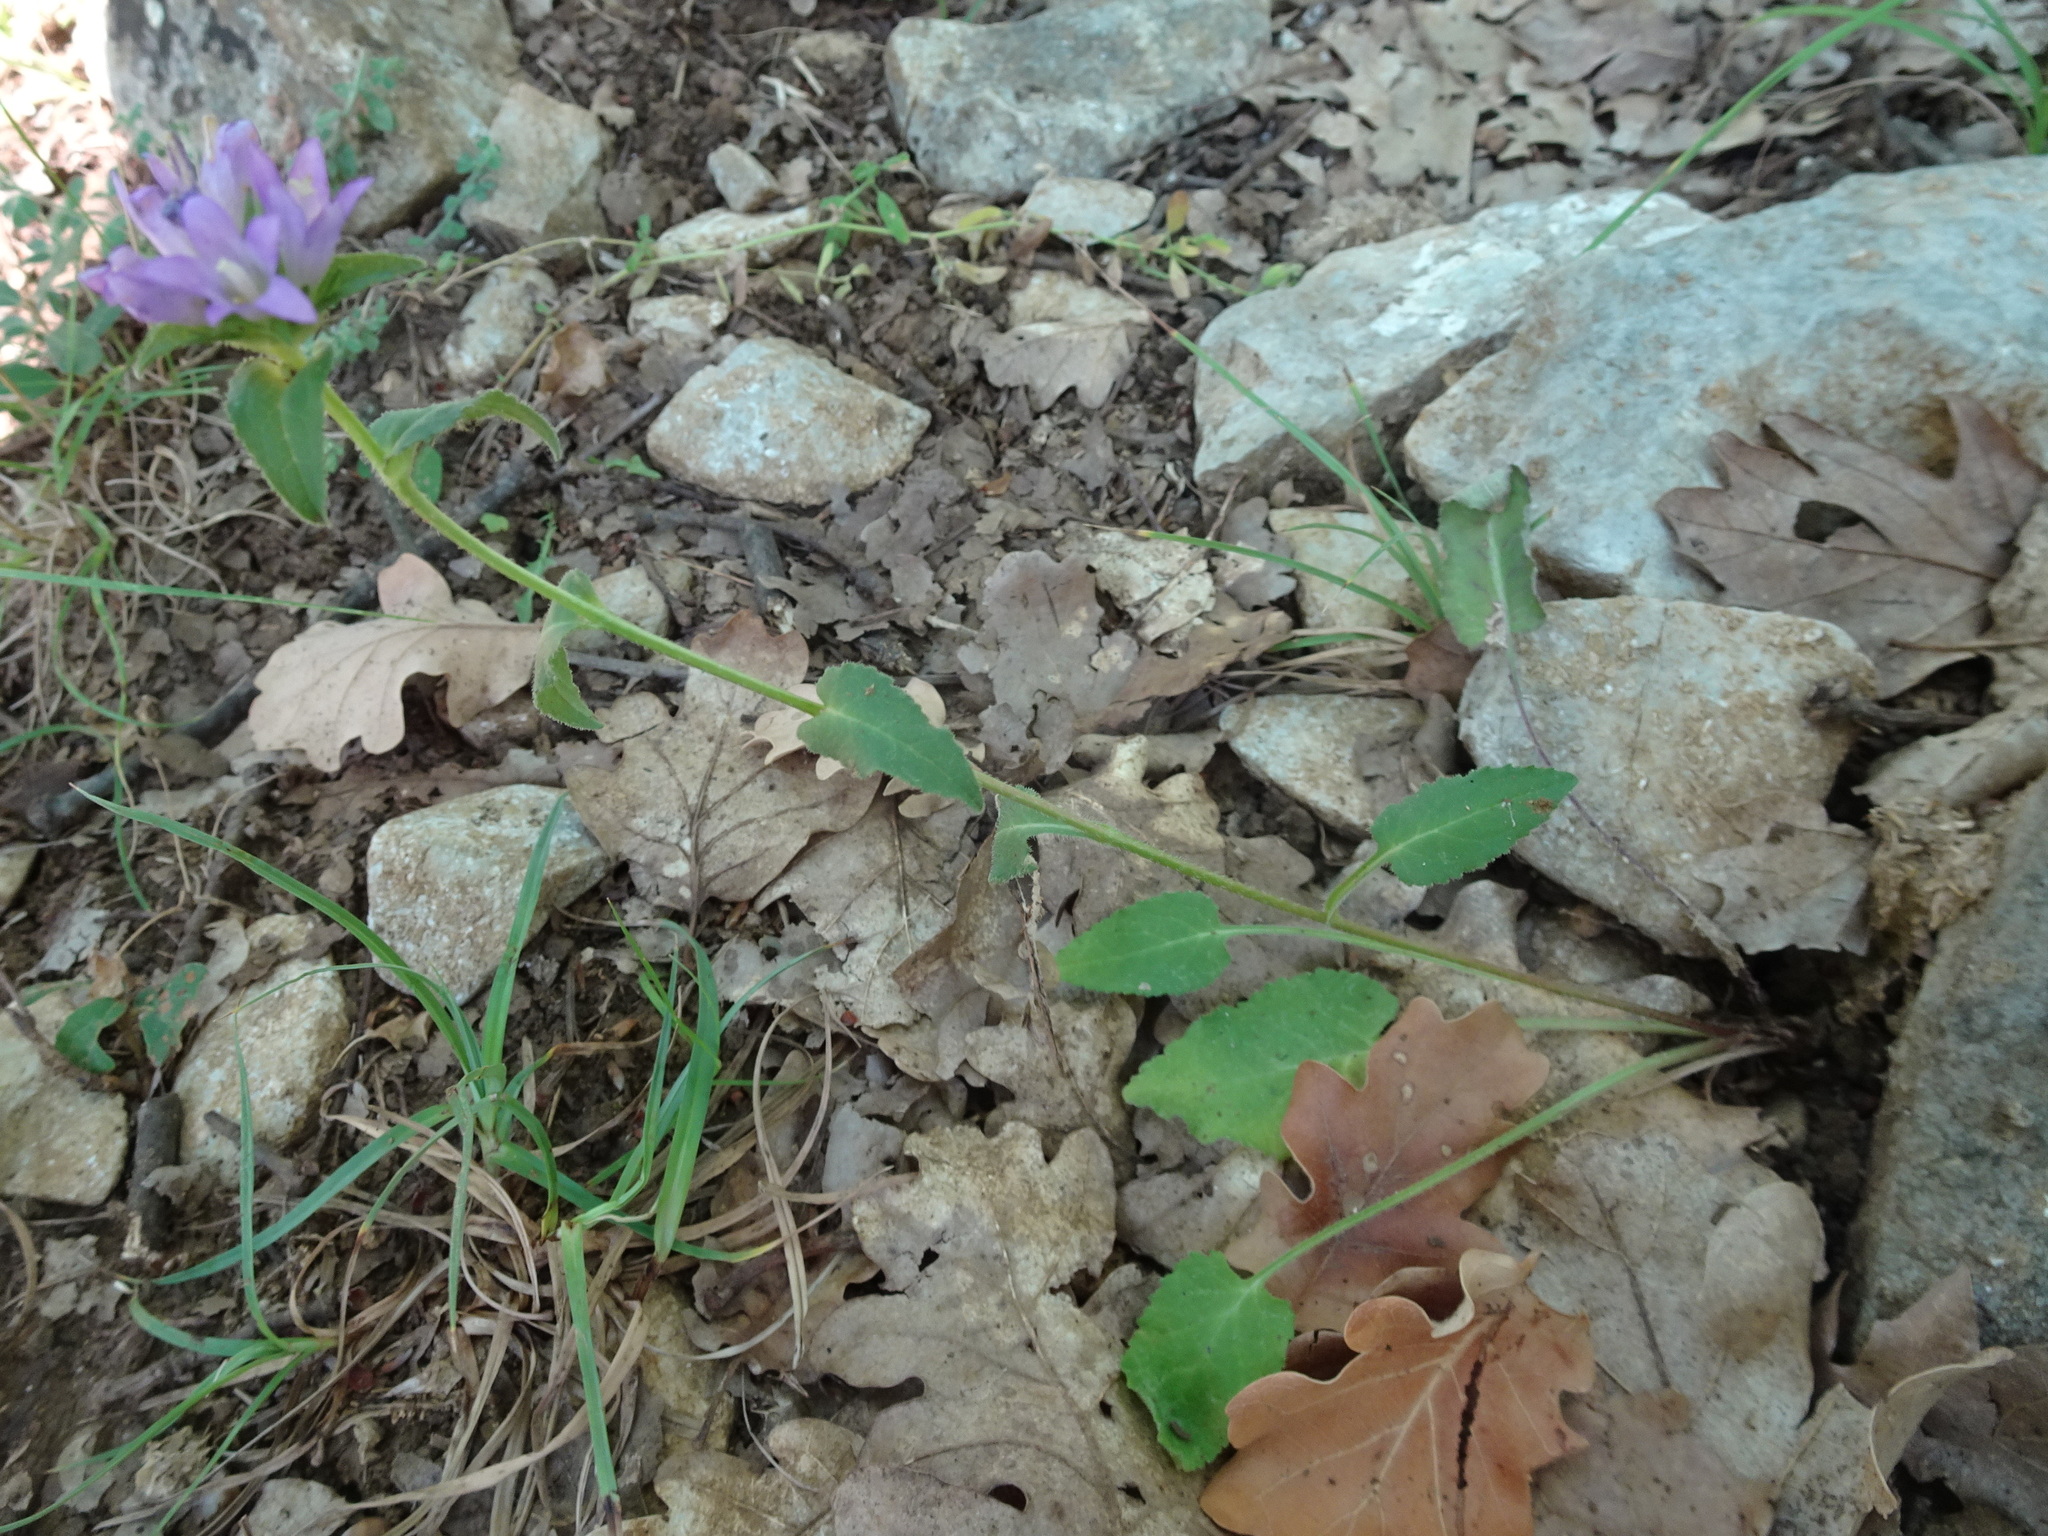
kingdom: Plantae
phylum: Tracheophyta
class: Magnoliopsida
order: Asterales
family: Campanulaceae
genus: Campanula
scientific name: Campanula glomerata
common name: Clustered bellflower
